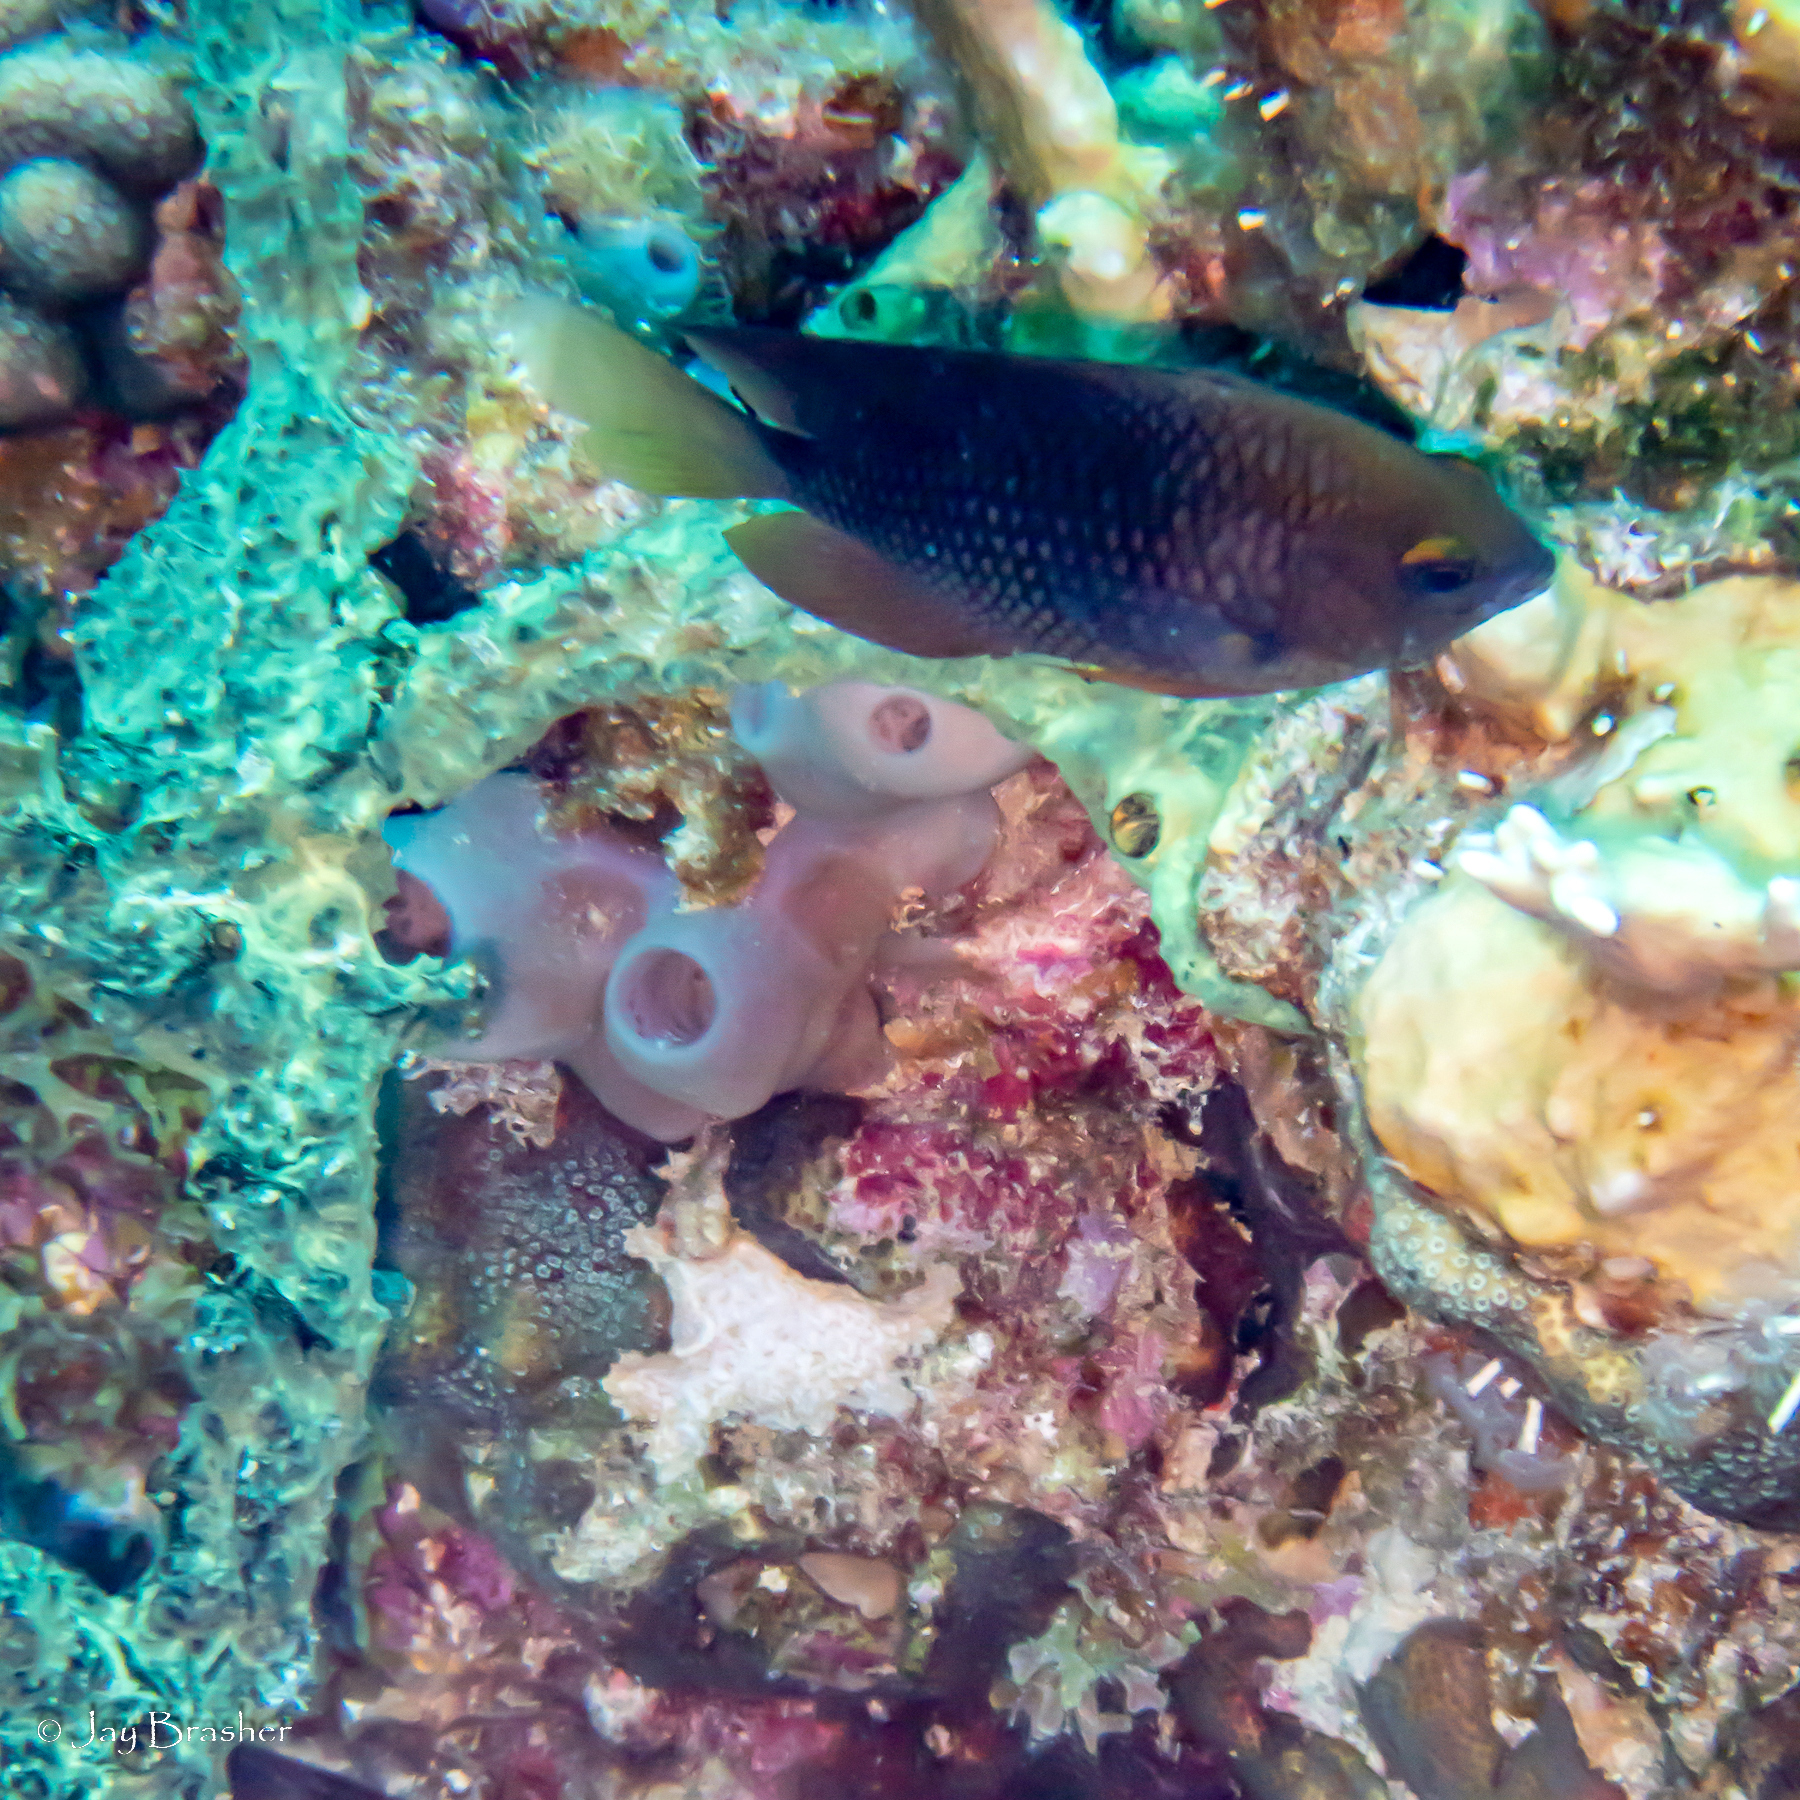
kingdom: Animalia
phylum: Porifera
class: Demospongiae
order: Haplosclerida
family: Callyspongiidae
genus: Callyspongia
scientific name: Callyspongia fallax
